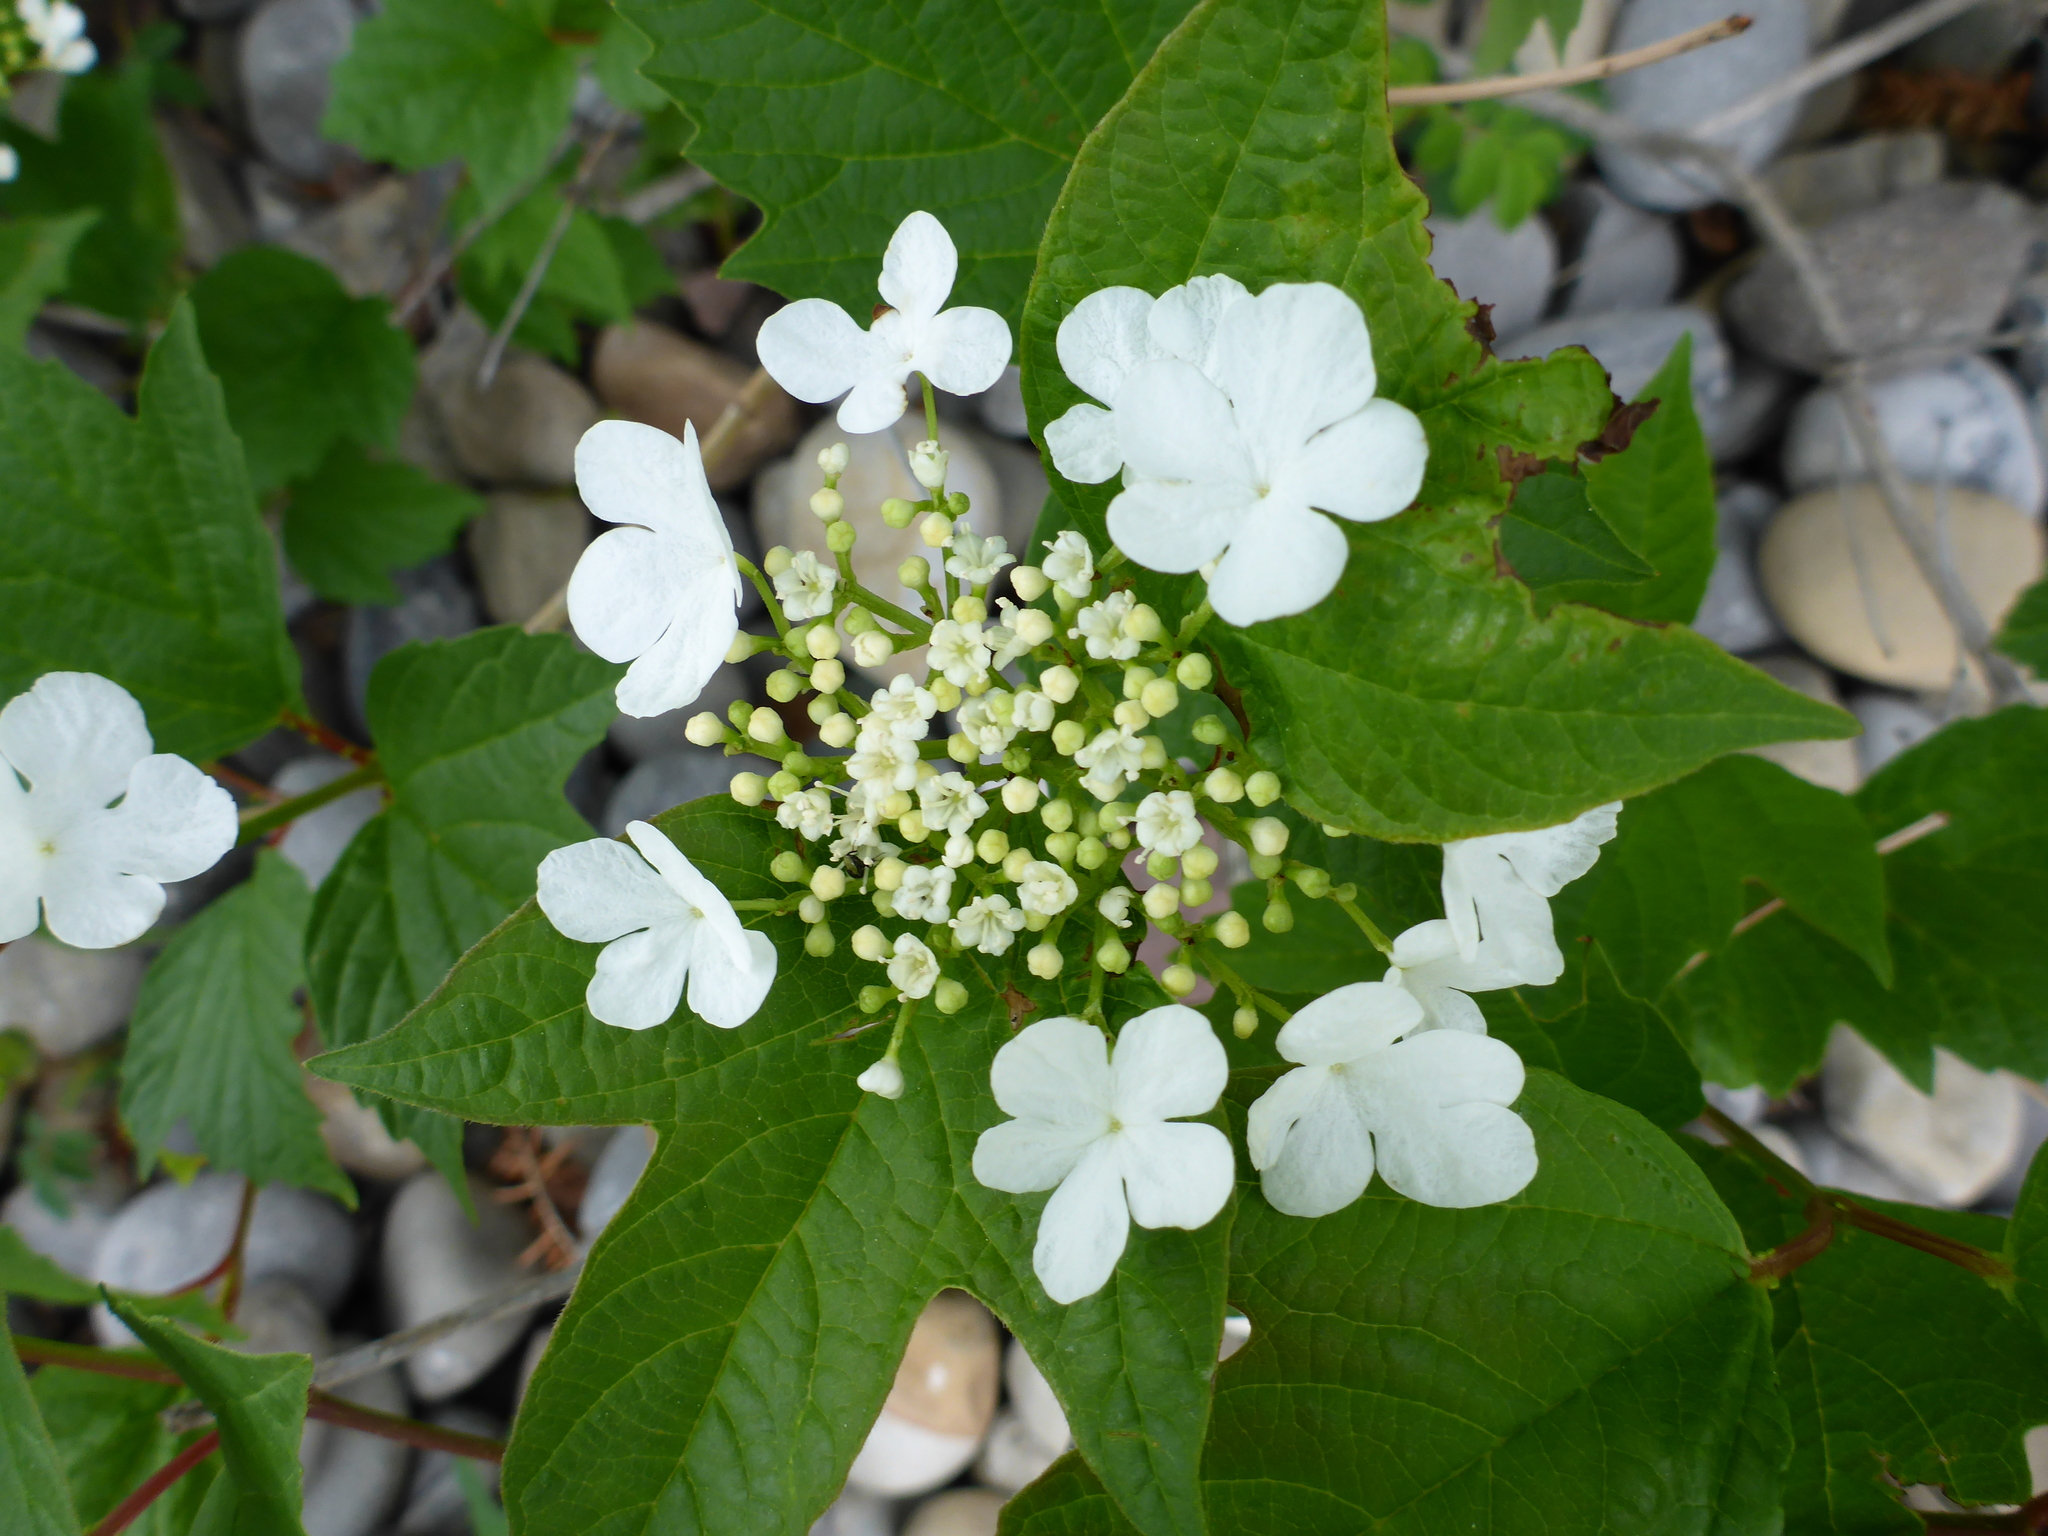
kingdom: Plantae
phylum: Tracheophyta
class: Magnoliopsida
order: Dipsacales
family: Viburnaceae
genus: Viburnum
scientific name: Viburnum opulus
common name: Guelder-rose
